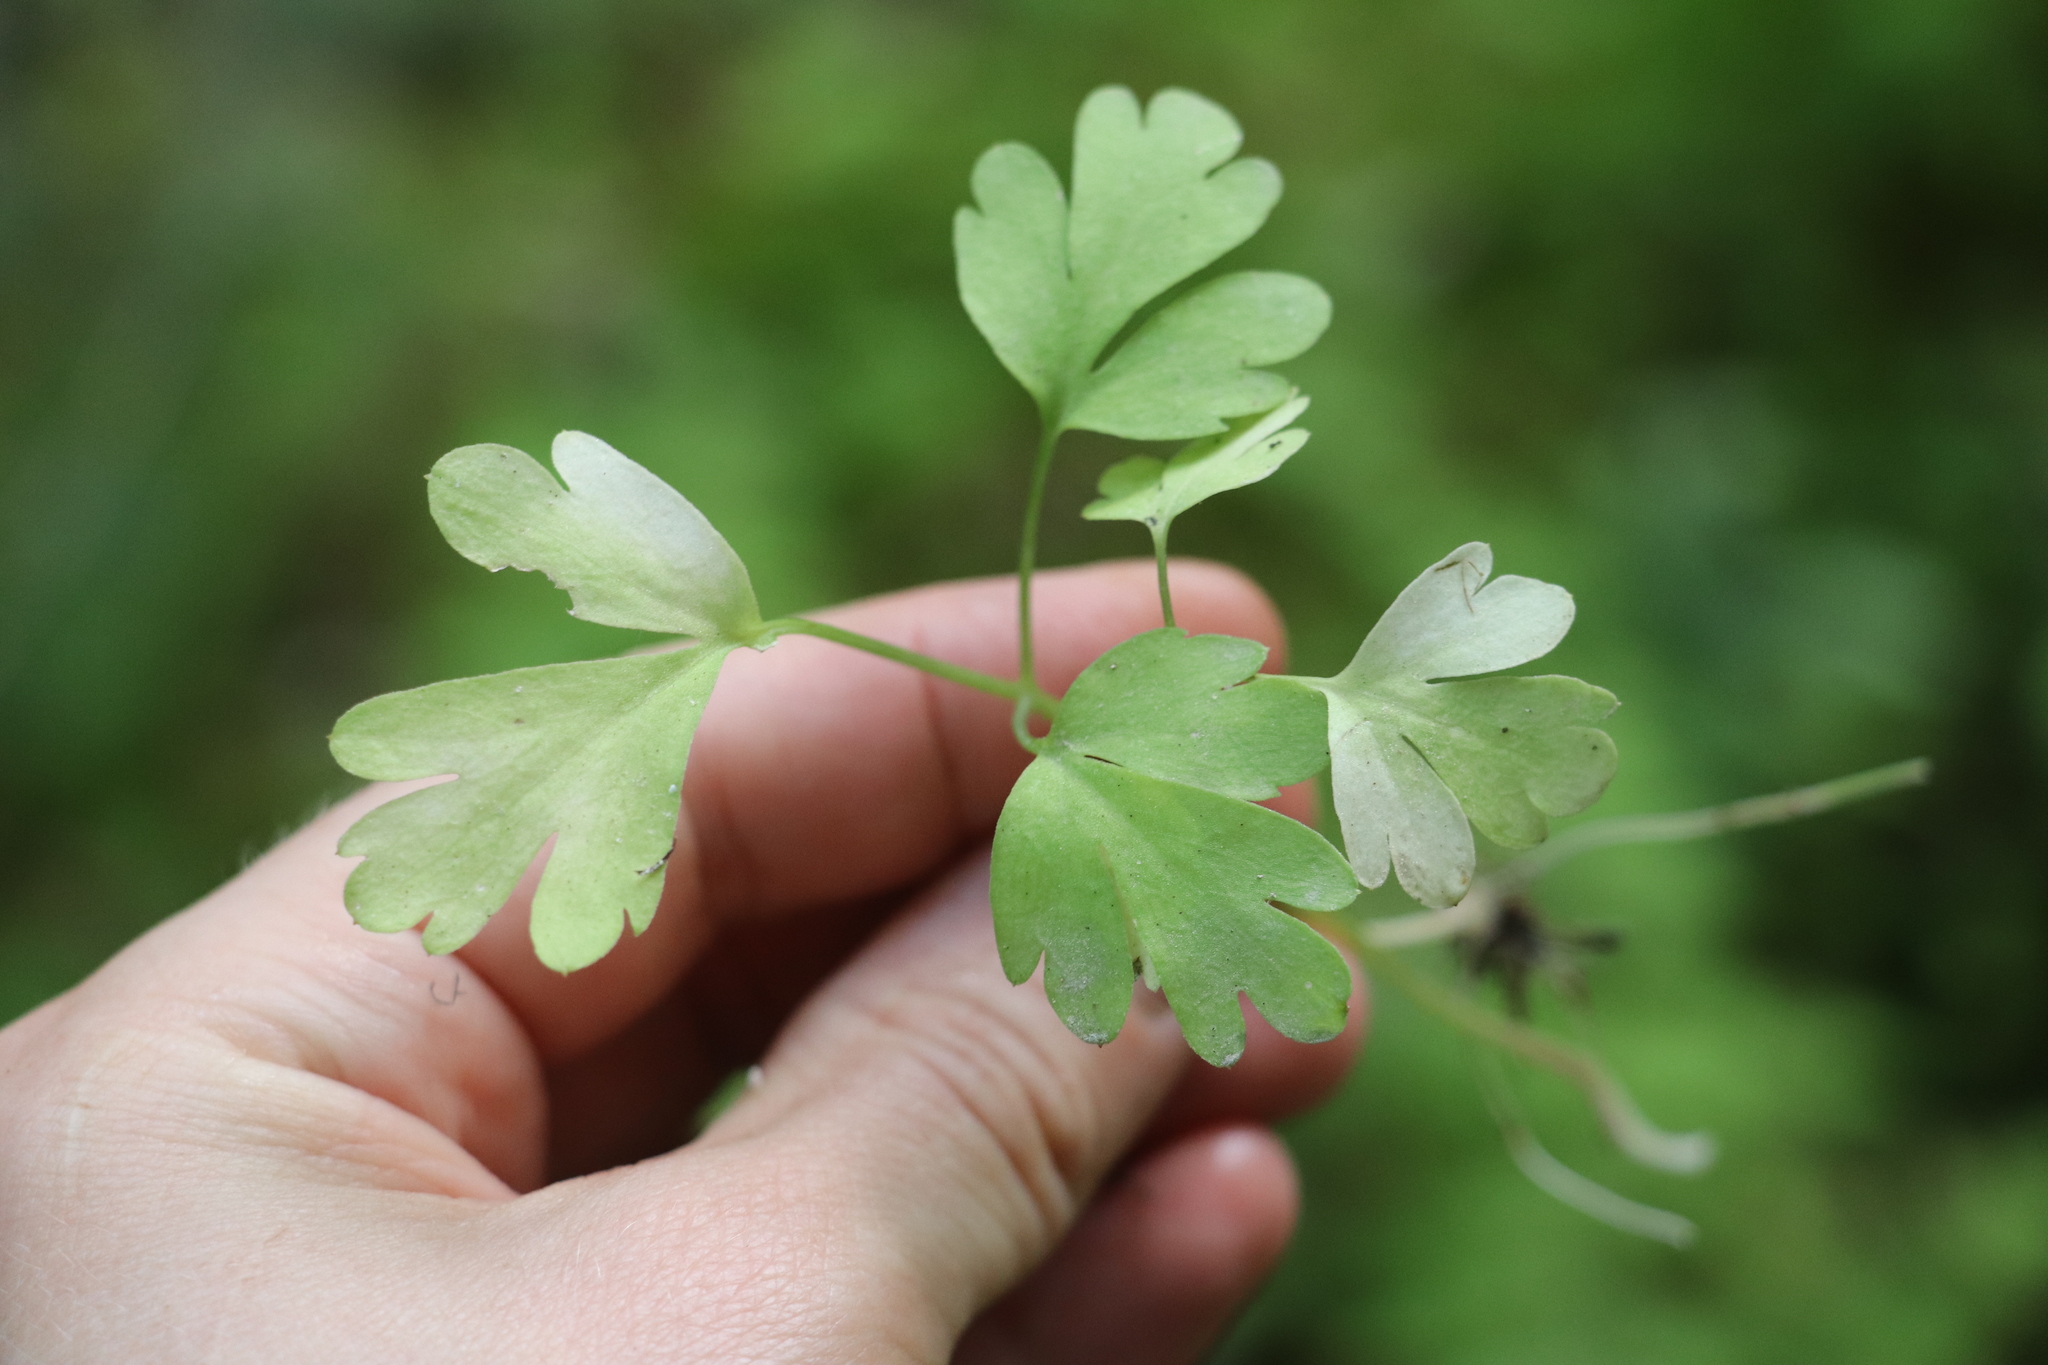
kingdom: Plantae
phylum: Tracheophyta
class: Magnoliopsida
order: Dipsacales
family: Viburnaceae
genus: Adoxa
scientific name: Adoxa moschatellina
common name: Moschatel
